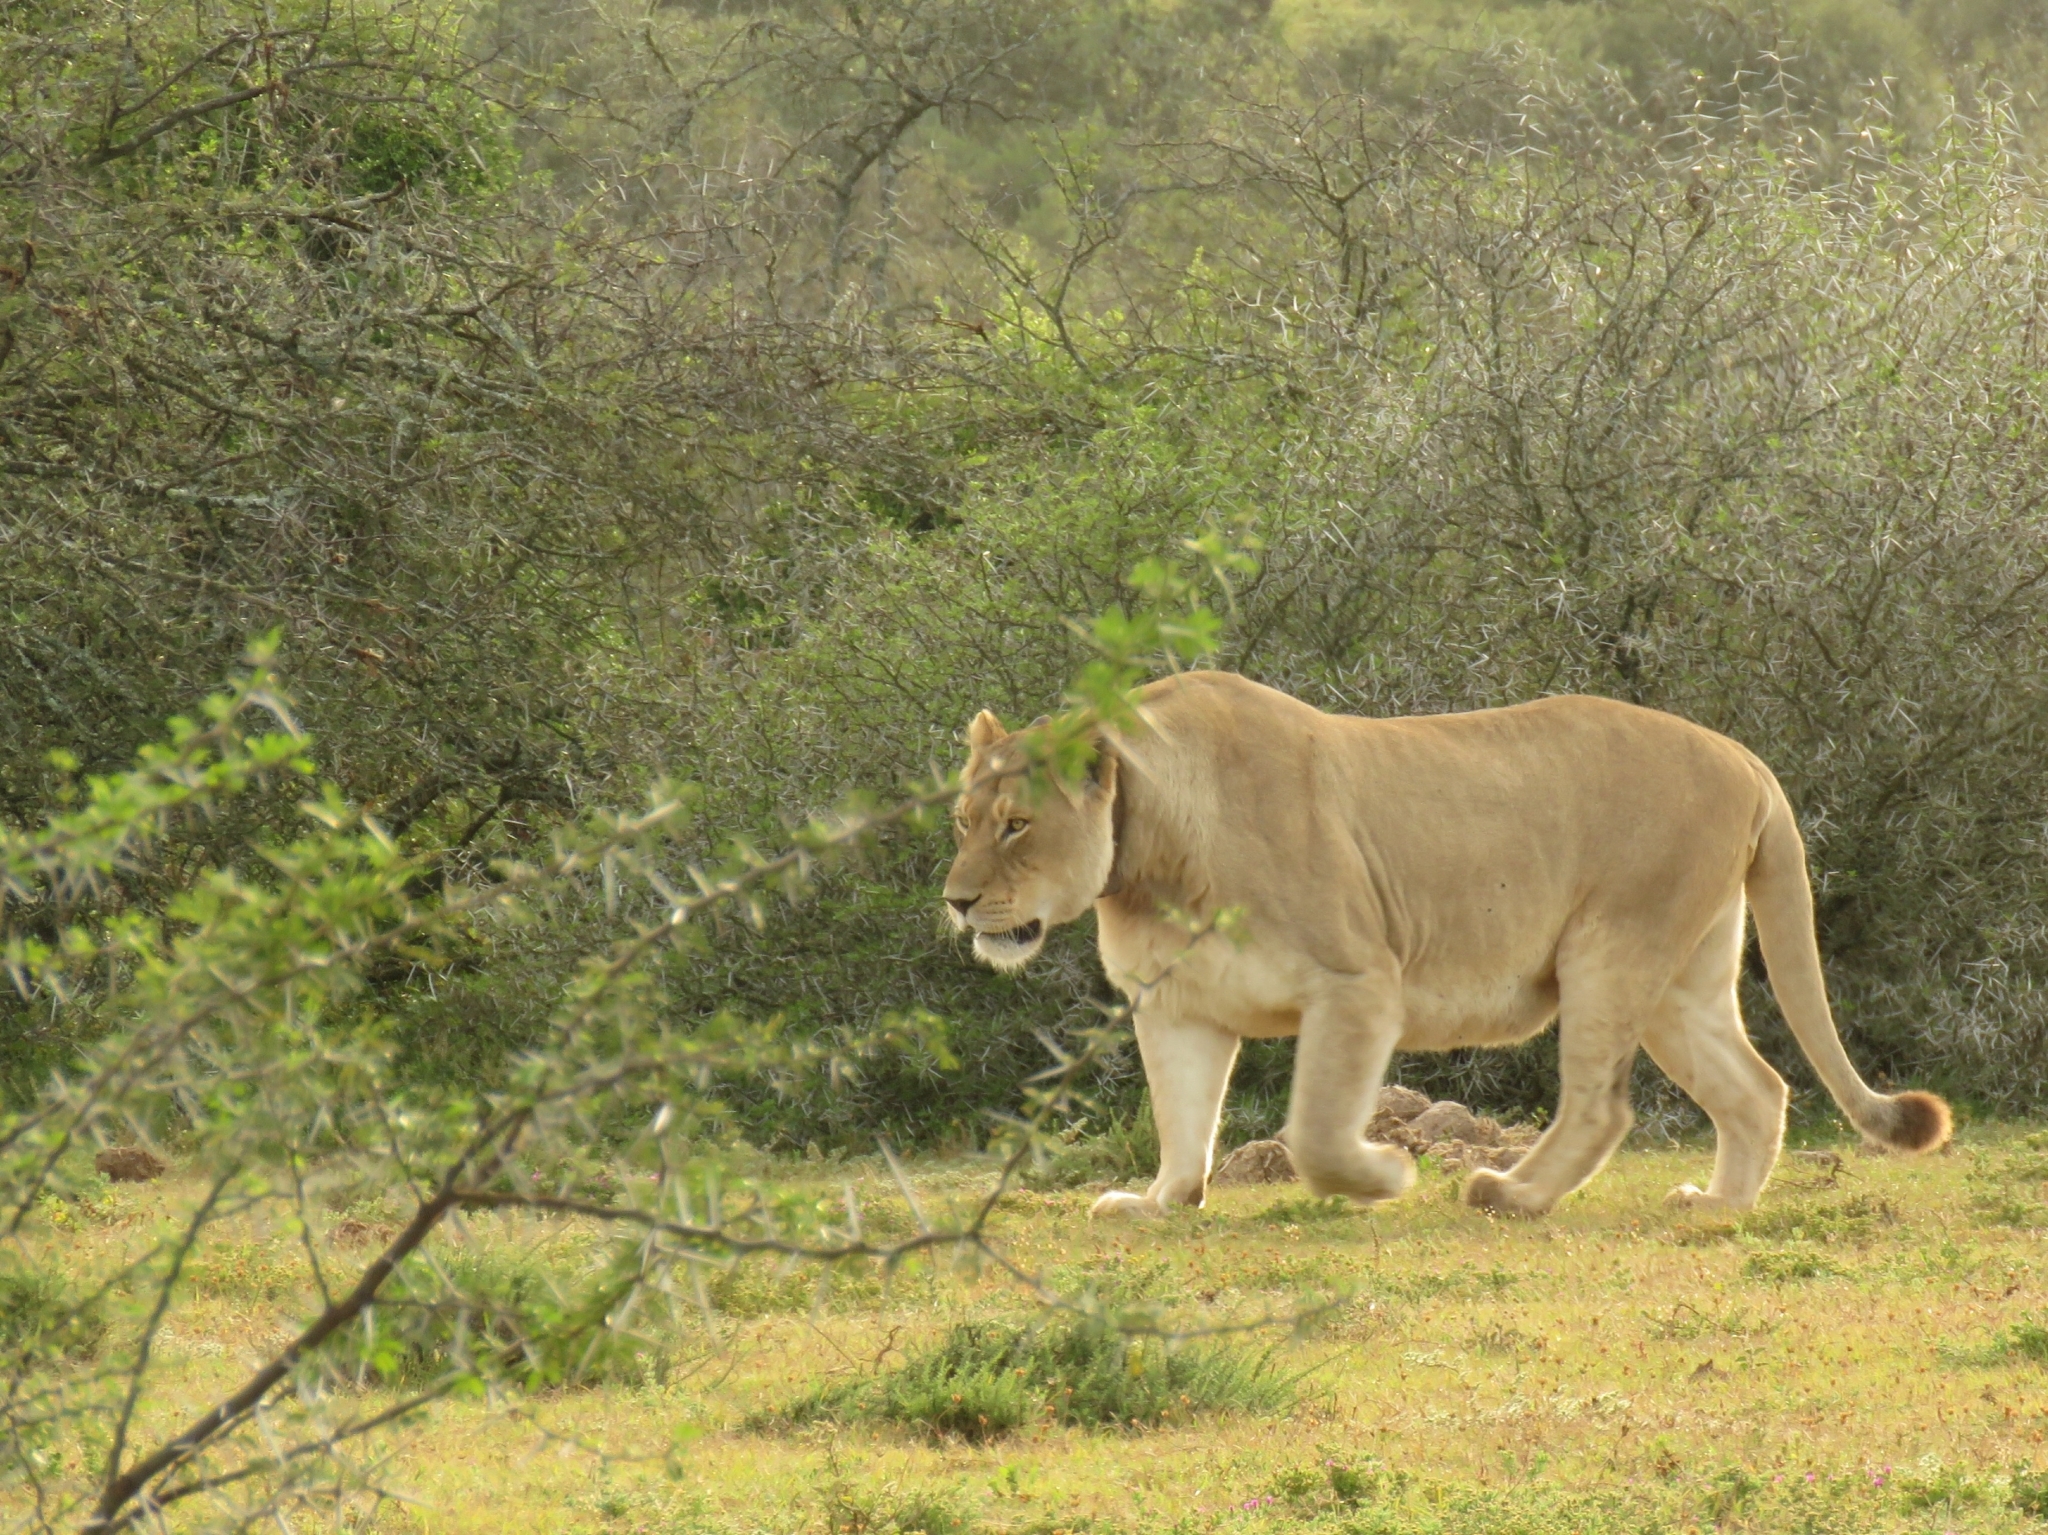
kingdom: Animalia
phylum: Chordata
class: Mammalia
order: Carnivora
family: Felidae
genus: Panthera
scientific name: Panthera leo
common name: Lion
